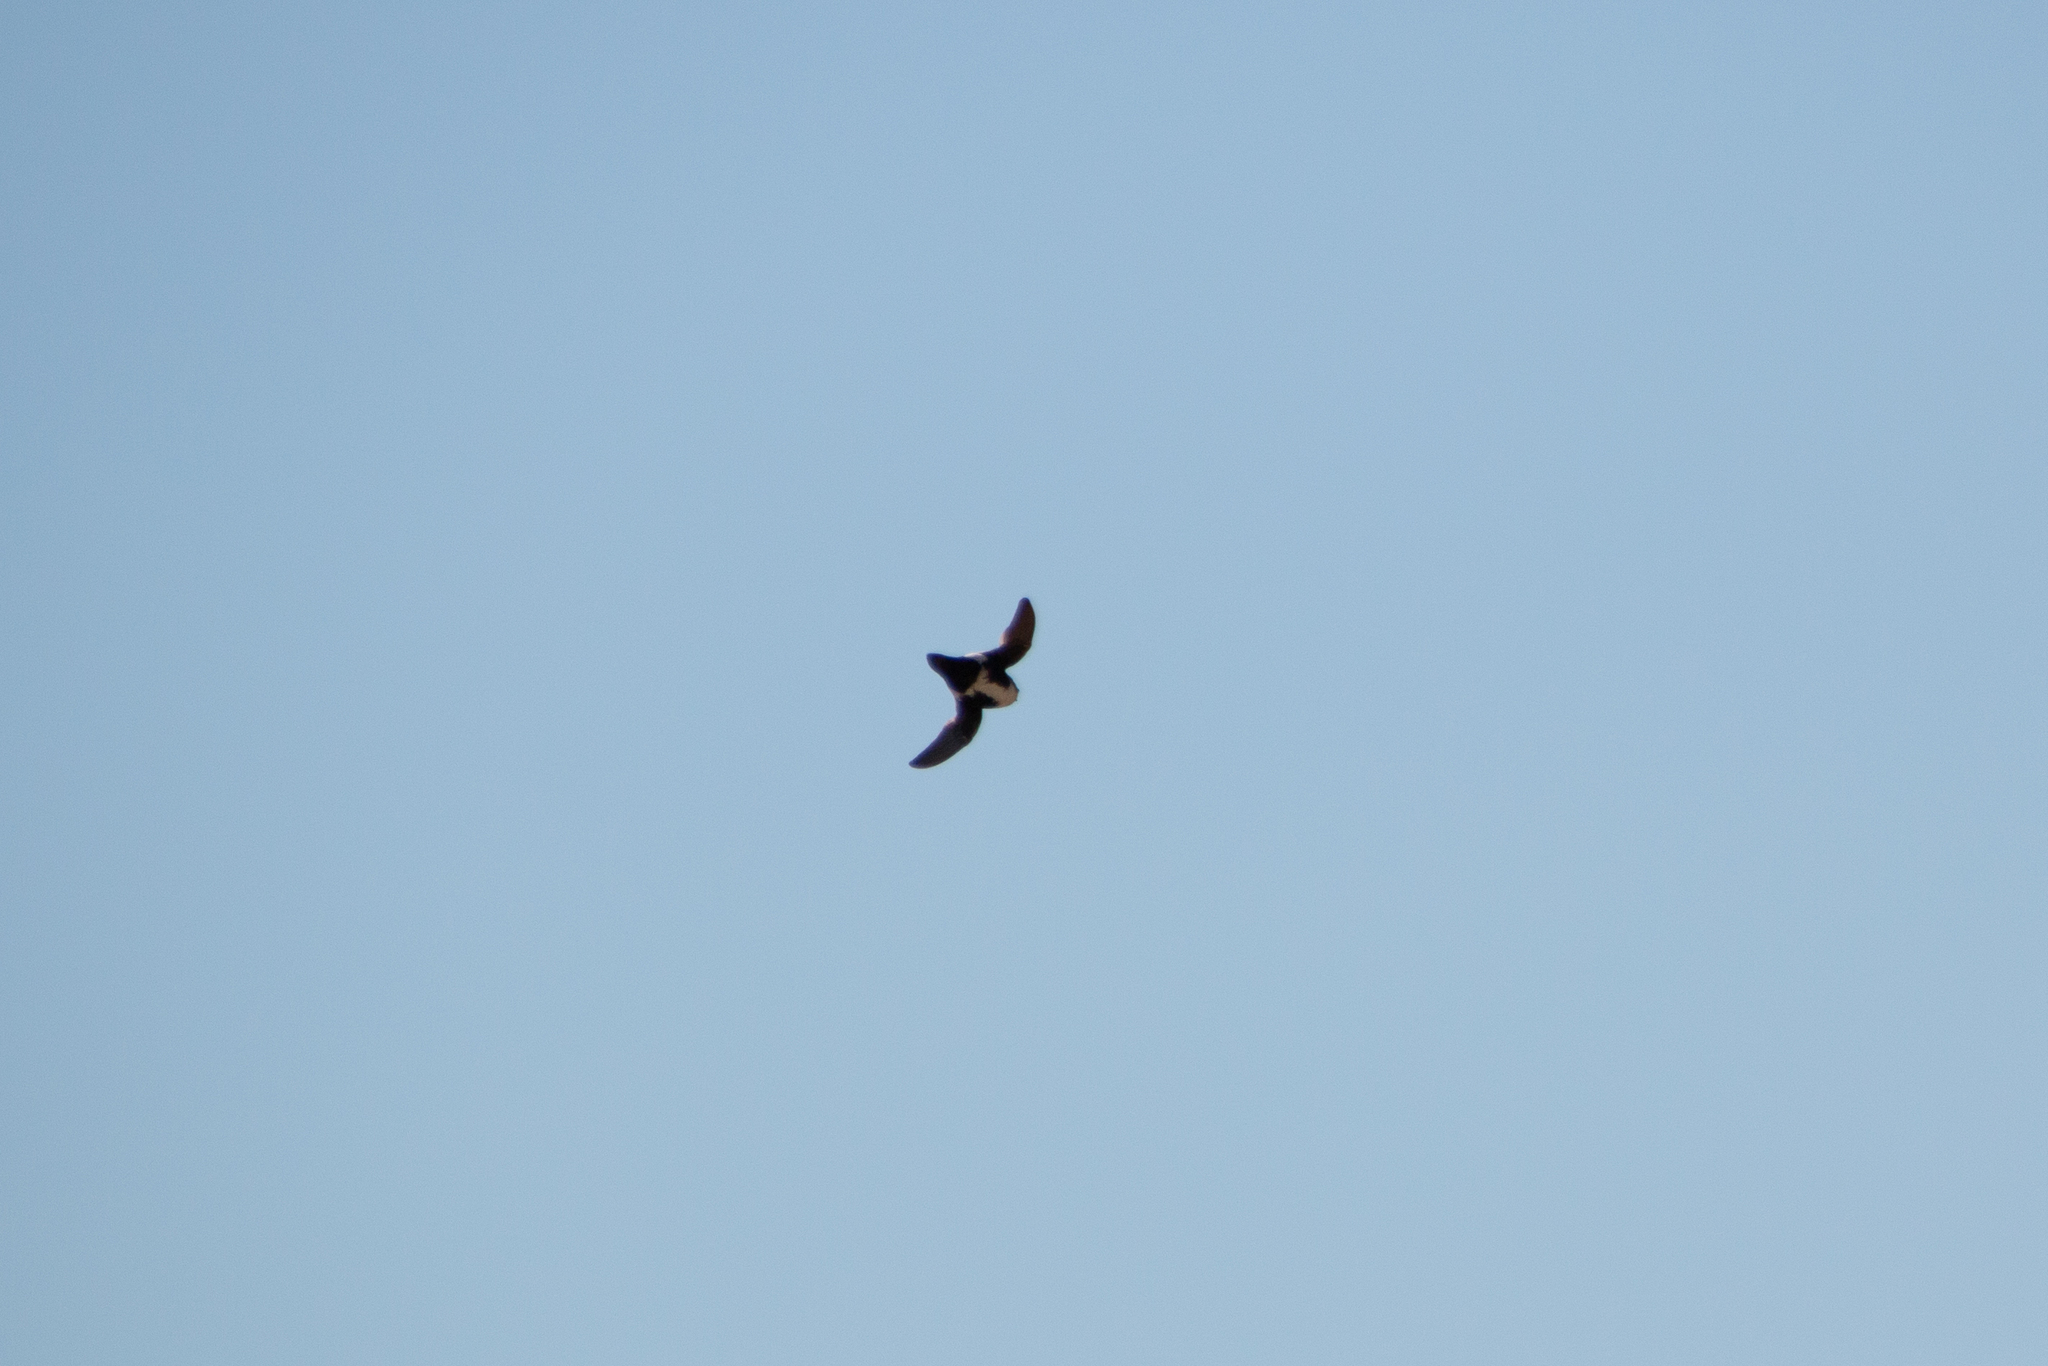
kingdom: Animalia
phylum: Chordata
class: Aves
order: Apodiformes
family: Apodidae
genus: Aeronautes
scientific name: Aeronautes saxatalis
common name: White-throated swift
